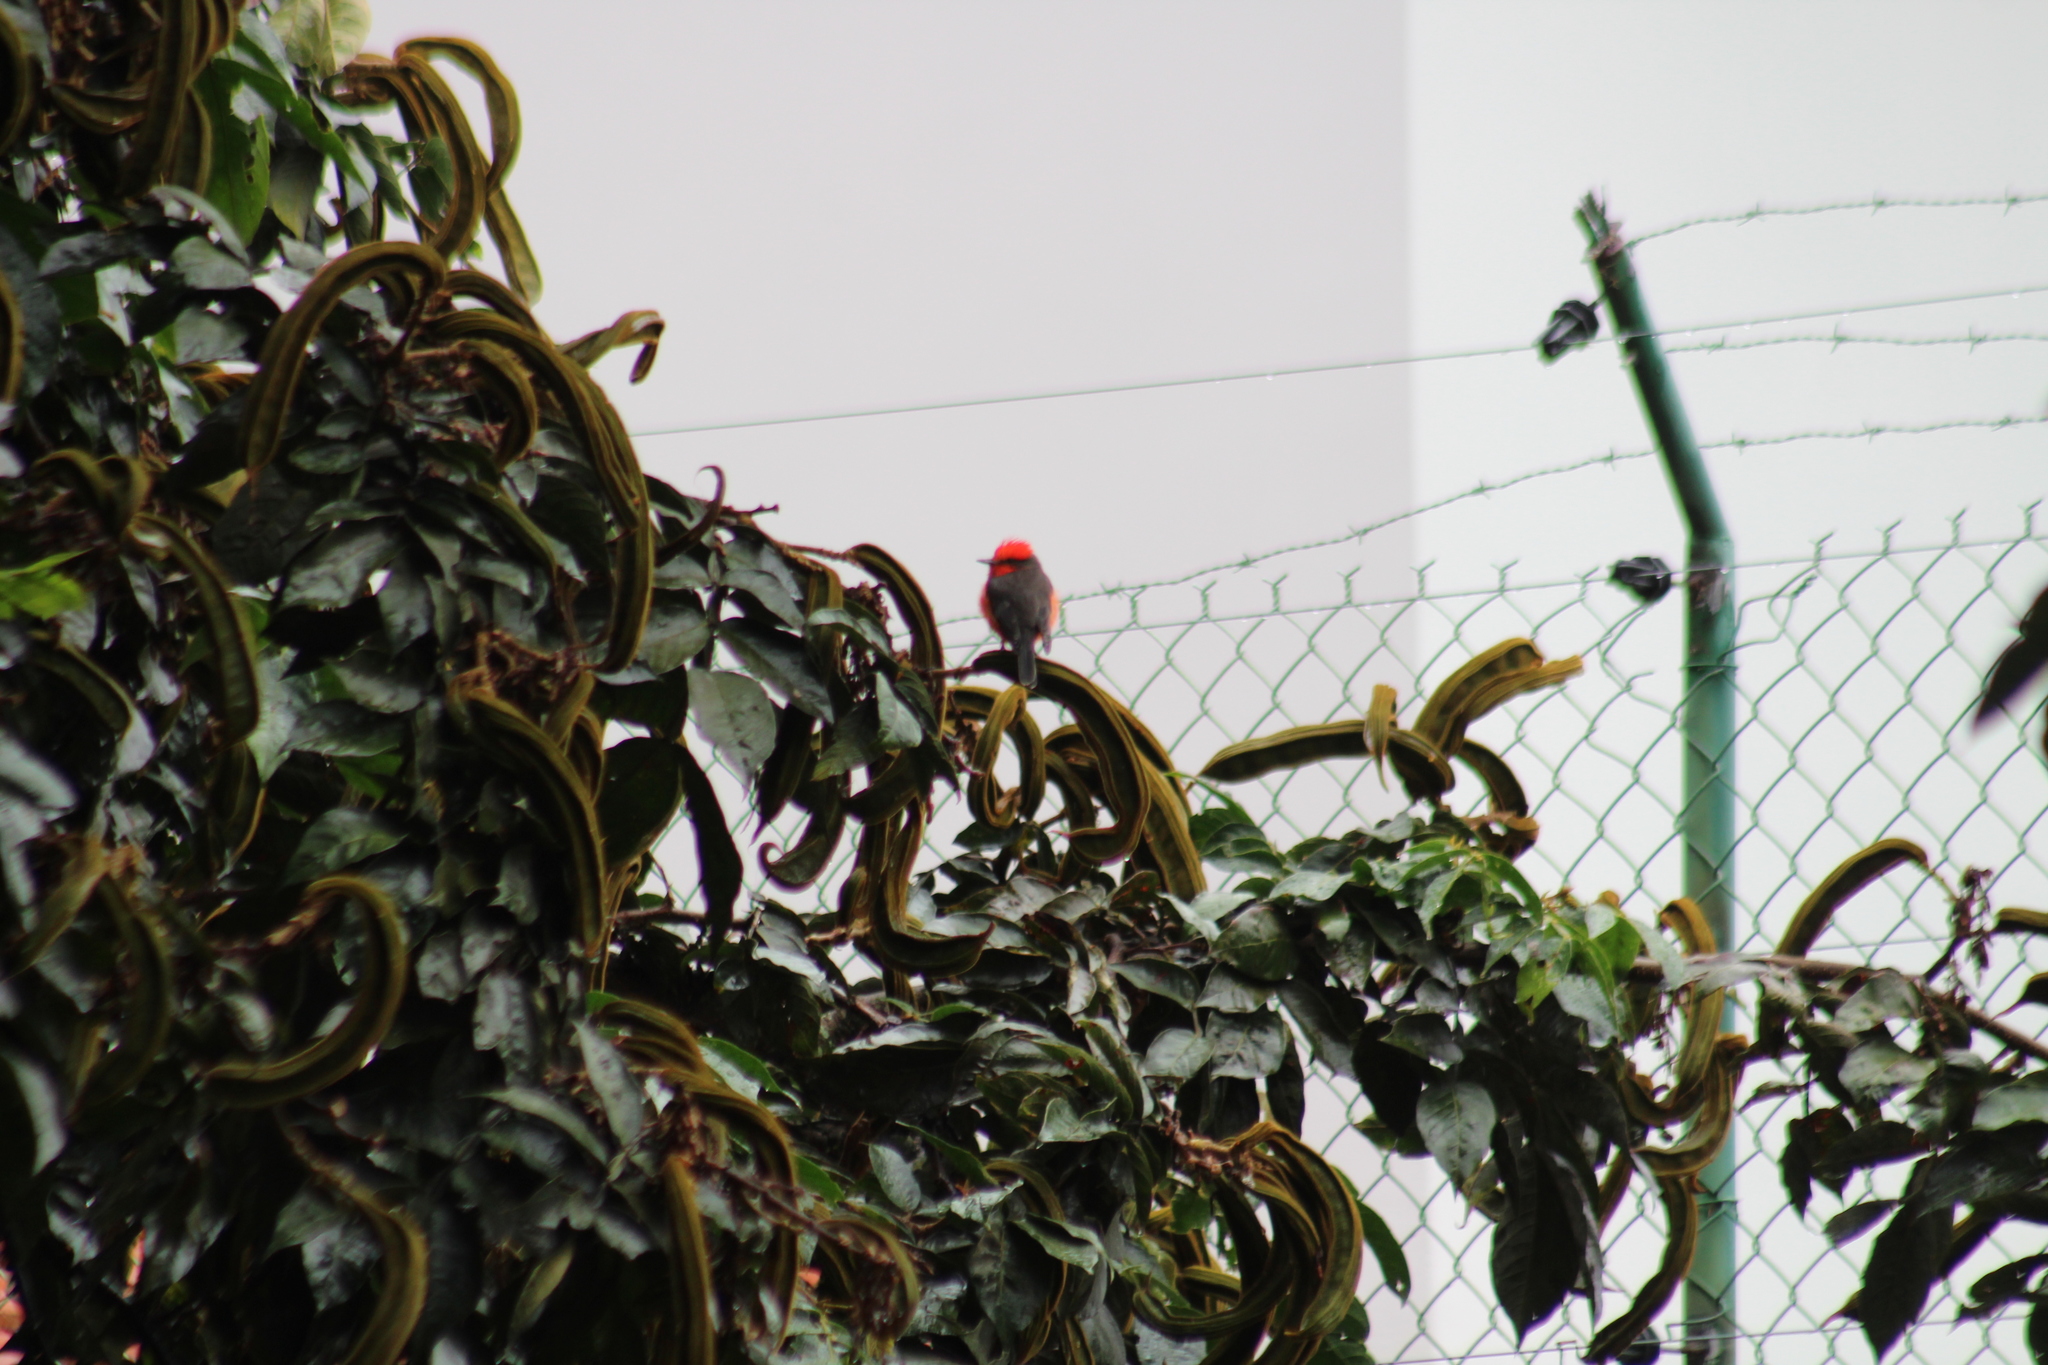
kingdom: Animalia
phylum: Chordata
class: Aves
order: Passeriformes
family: Tyrannidae
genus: Pyrocephalus
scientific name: Pyrocephalus rubinus
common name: Vermilion flycatcher
